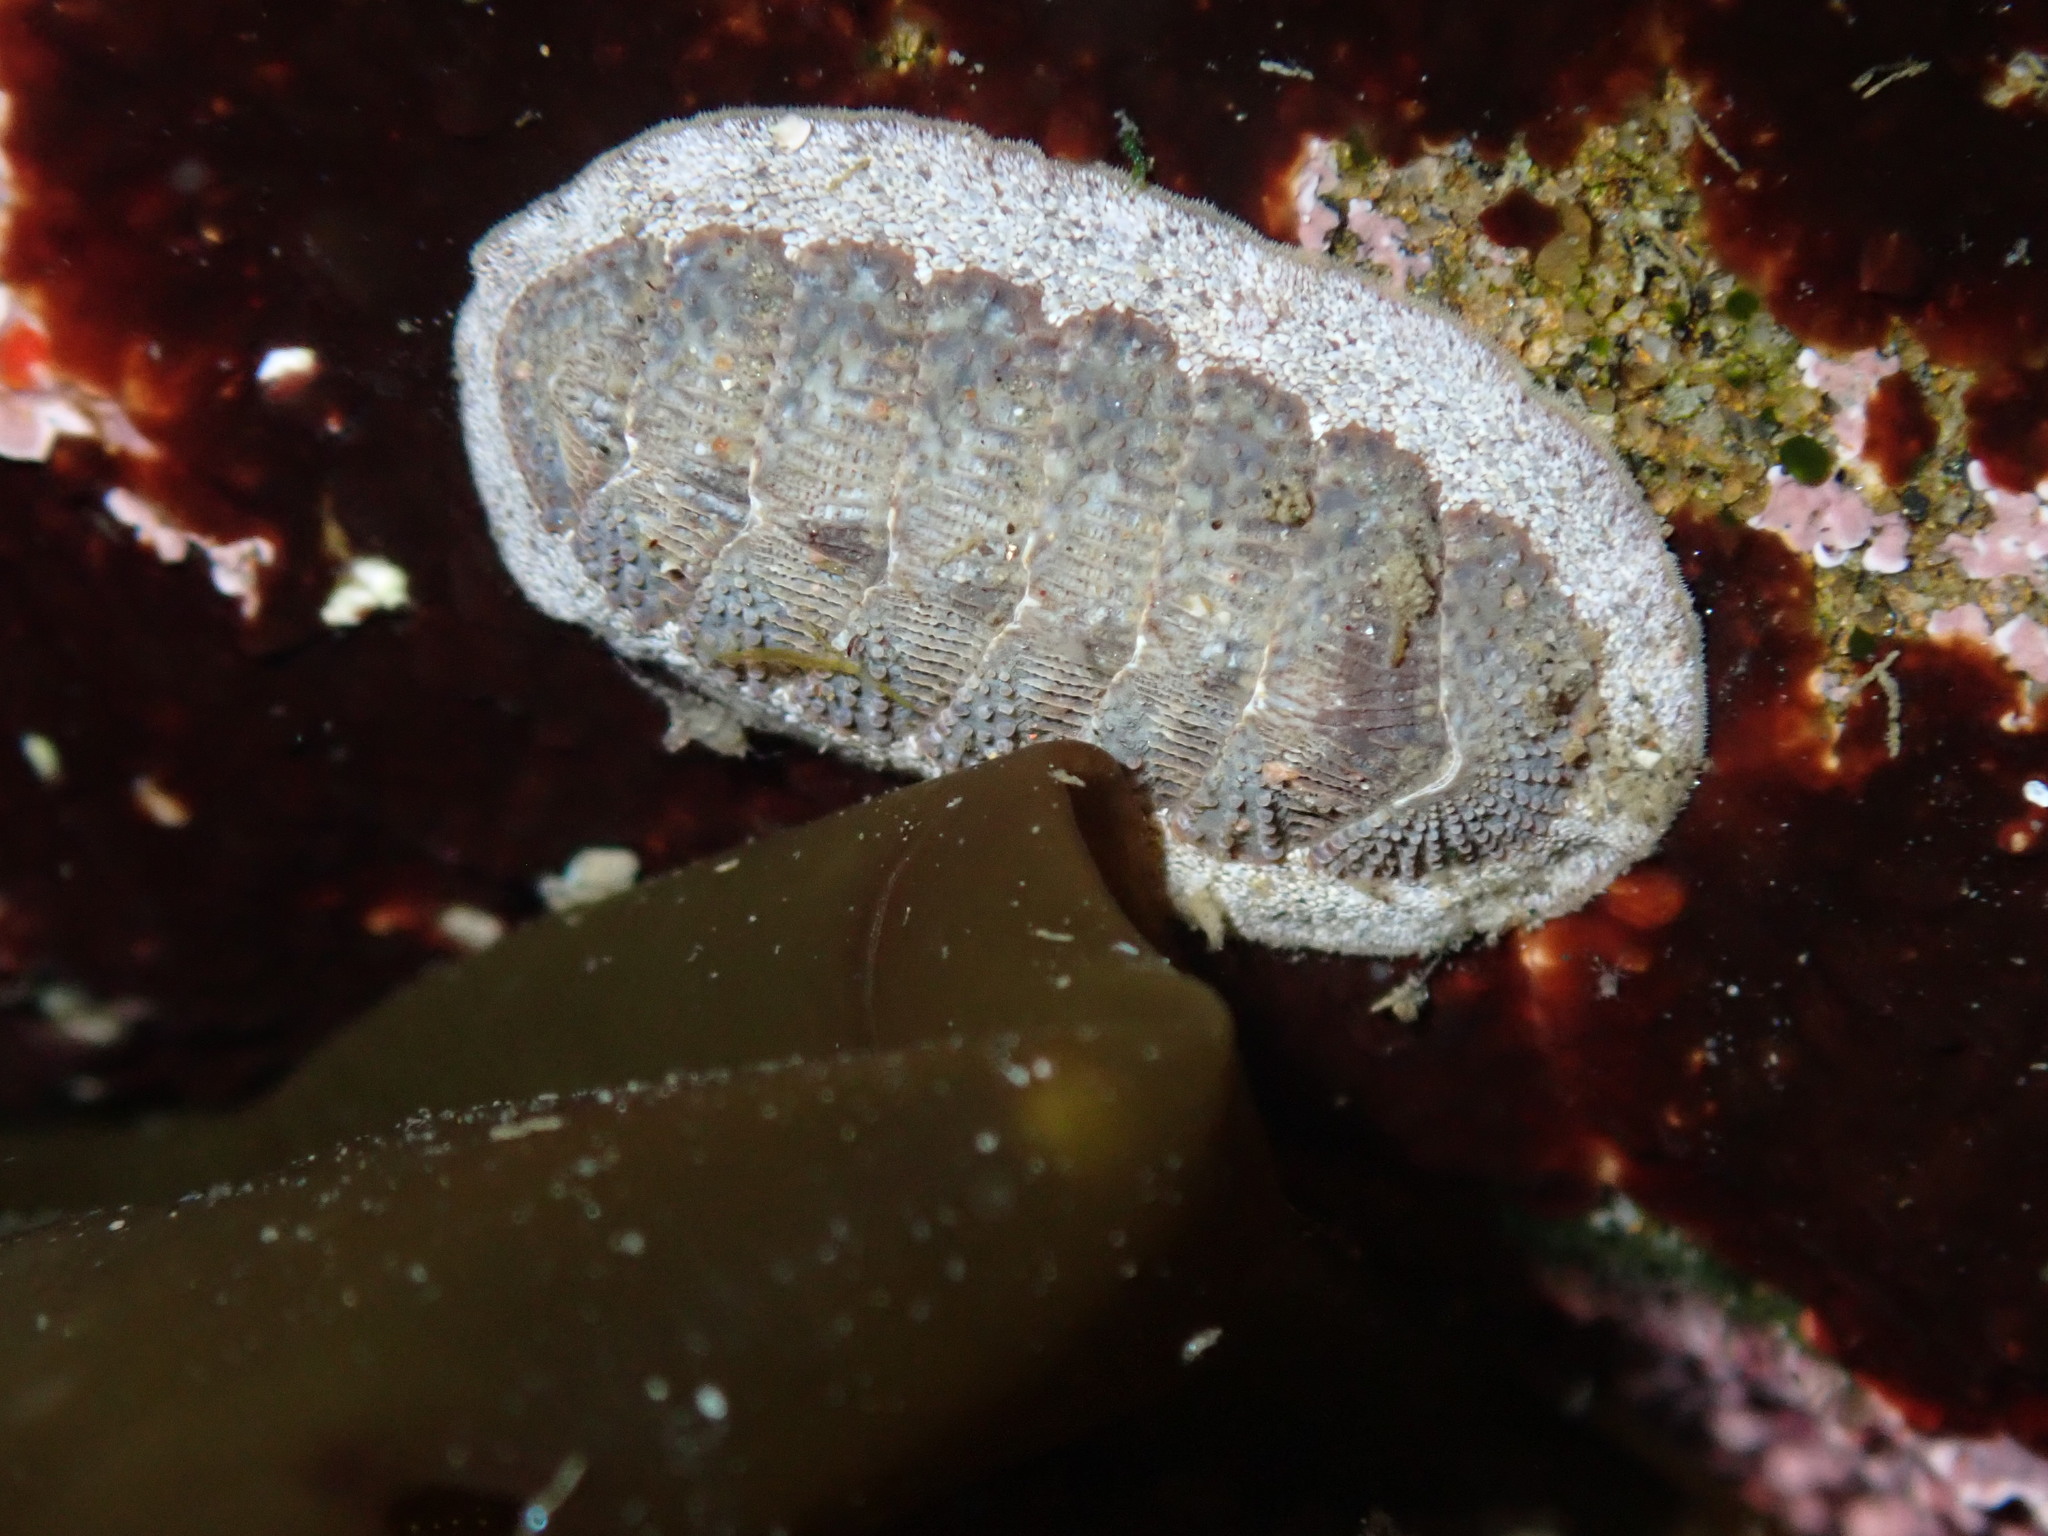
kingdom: Animalia
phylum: Mollusca
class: Polyplacophora
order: Chitonida
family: Ischnochitonidae
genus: Lepidozona
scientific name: Lepidozona cooperi
